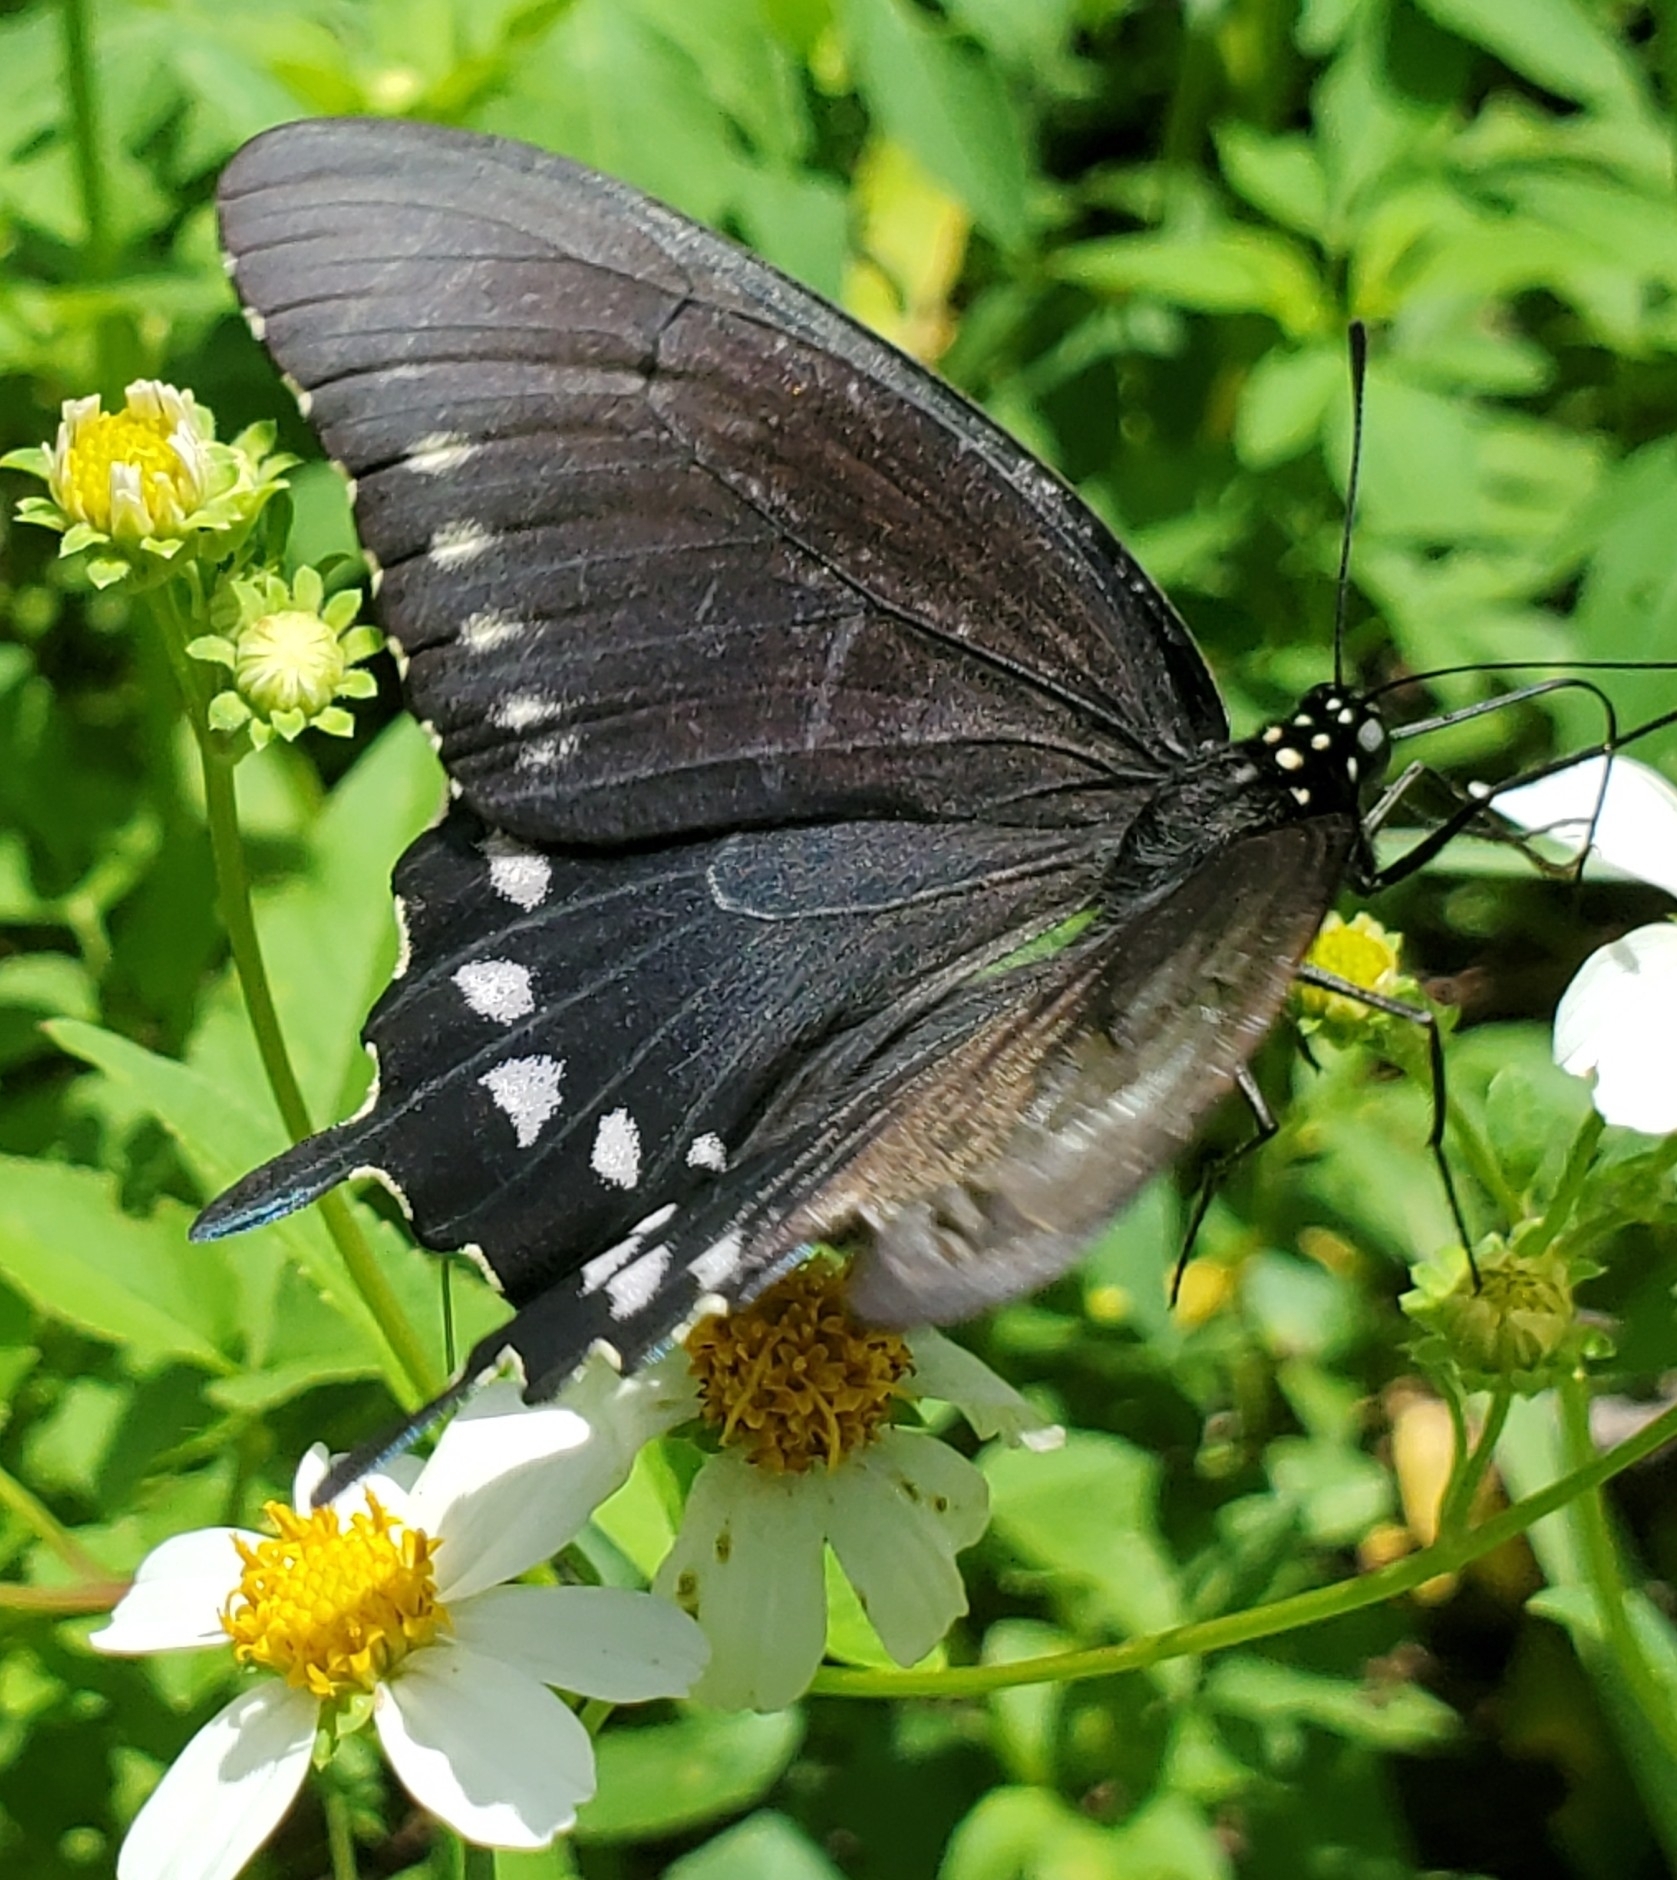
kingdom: Animalia
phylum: Arthropoda
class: Insecta
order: Lepidoptera
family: Papilionidae
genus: Battus
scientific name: Battus philenor
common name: Pipevine swallowtail
